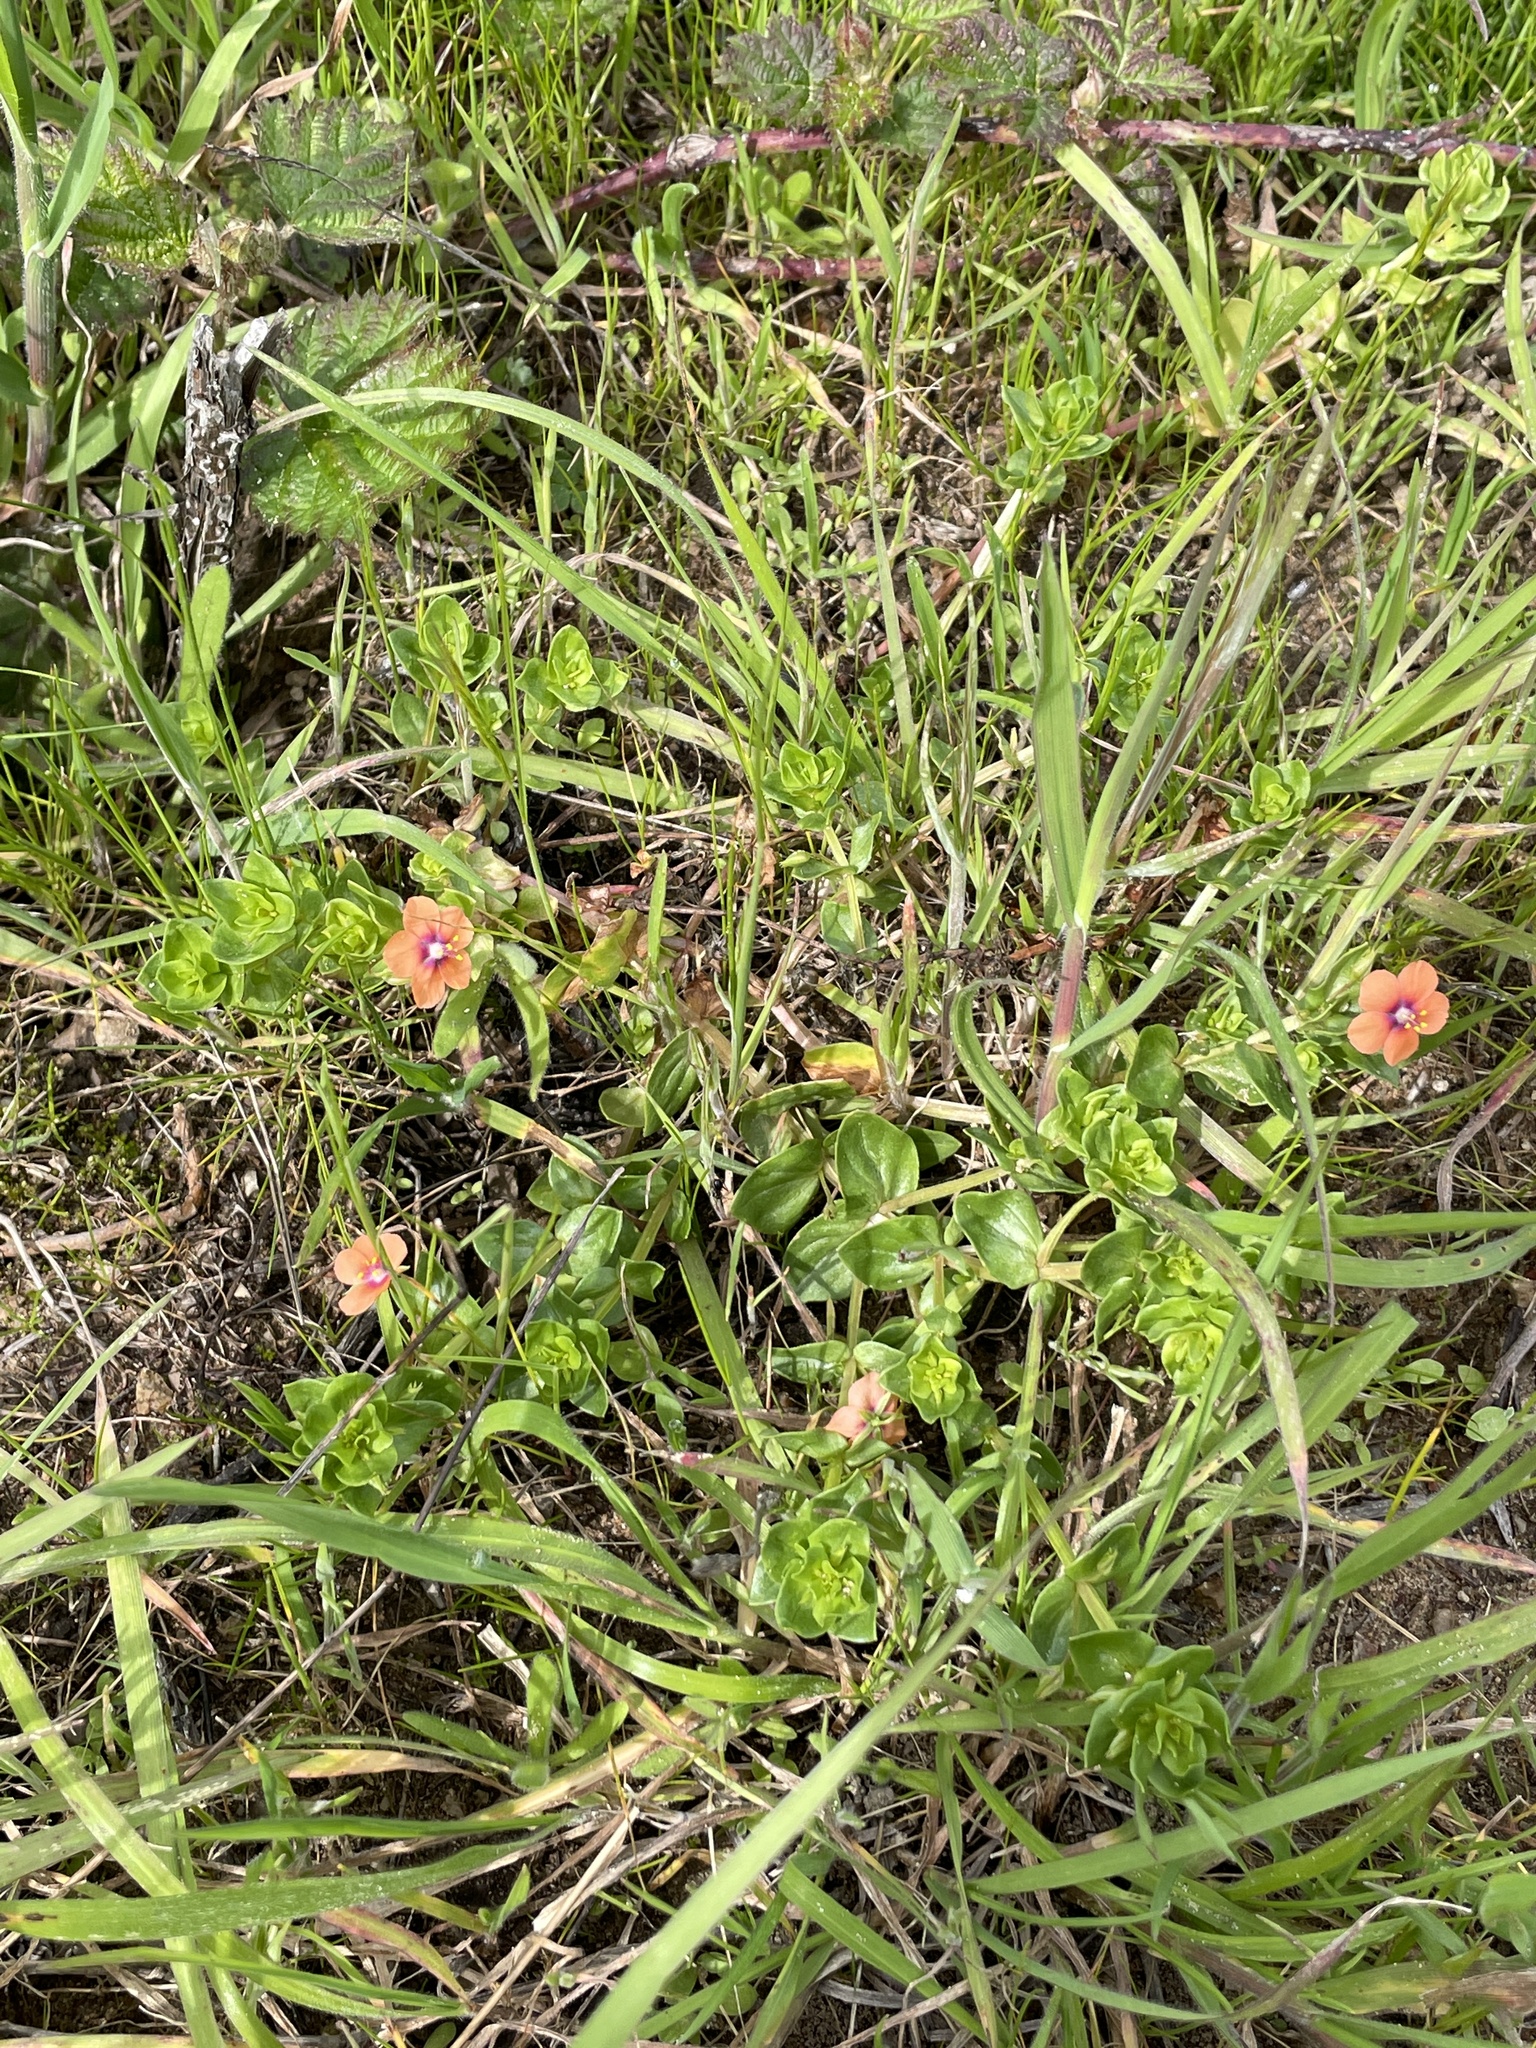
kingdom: Plantae
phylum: Tracheophyta
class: Magnoliopsida
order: Ericales
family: Primulaceae
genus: Lysimachia
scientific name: Lysimachia arvensis
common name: Scarlet pimpernel
